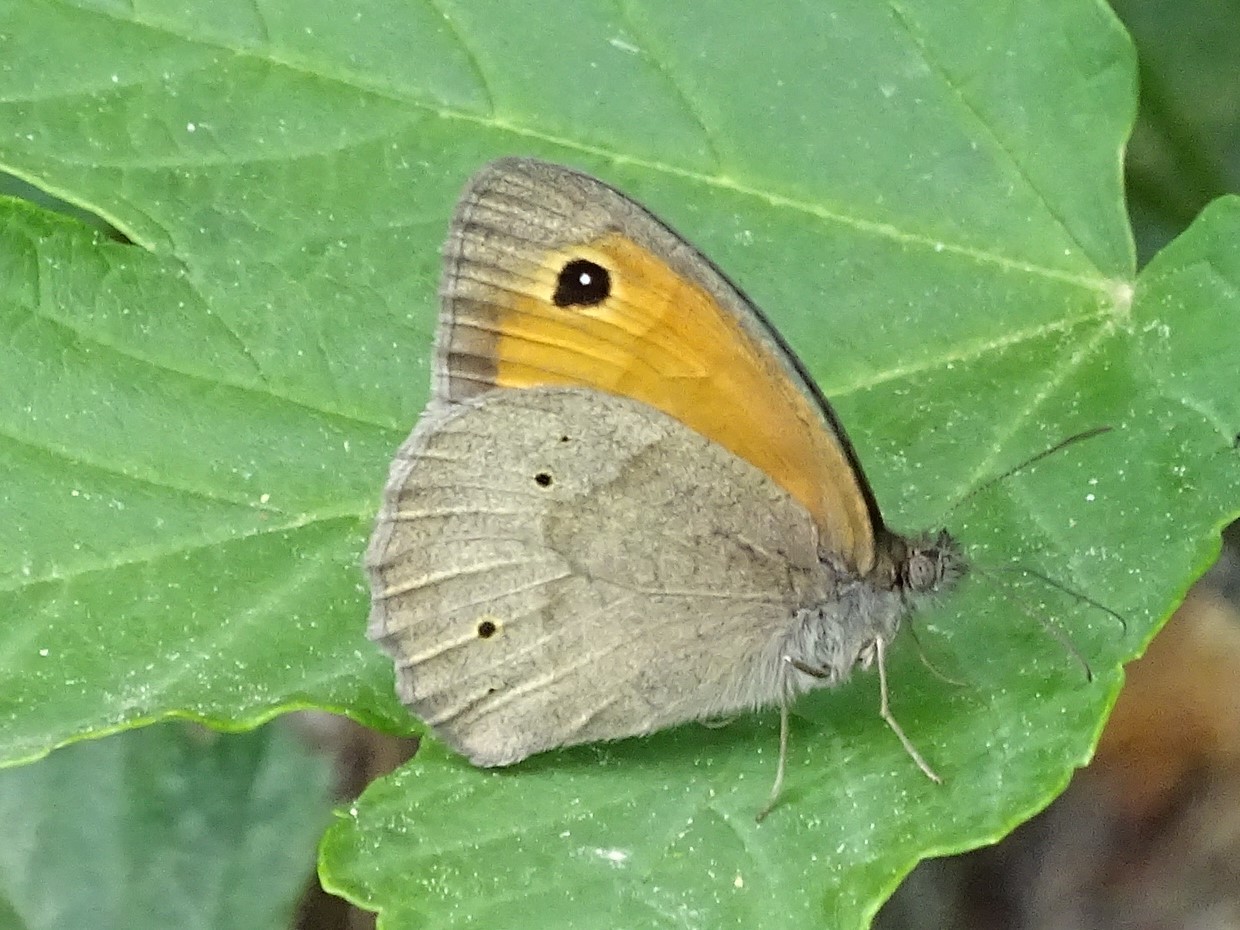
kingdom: Animalia
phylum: Arthropoda
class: Insecta
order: Lepidoptera
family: Nymphalidae
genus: Coenonympha
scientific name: Coenonympha pamphilus
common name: Small heath
